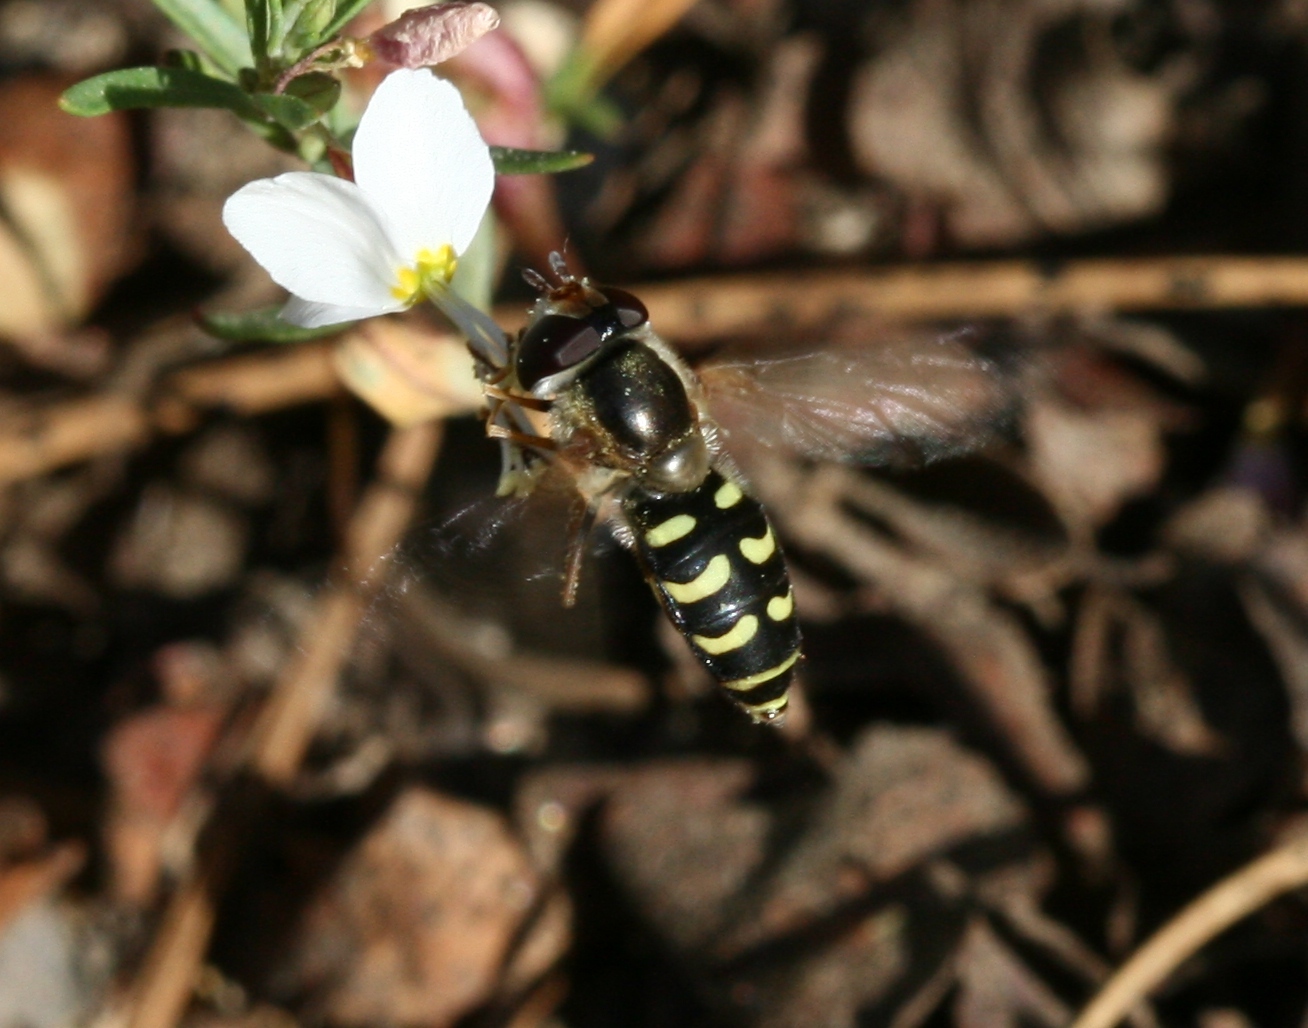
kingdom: Animalia
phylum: Arthropoda
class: Insecta
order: Diptera
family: Syrphidae
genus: Eupeodes
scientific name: Eupeodes volucris
